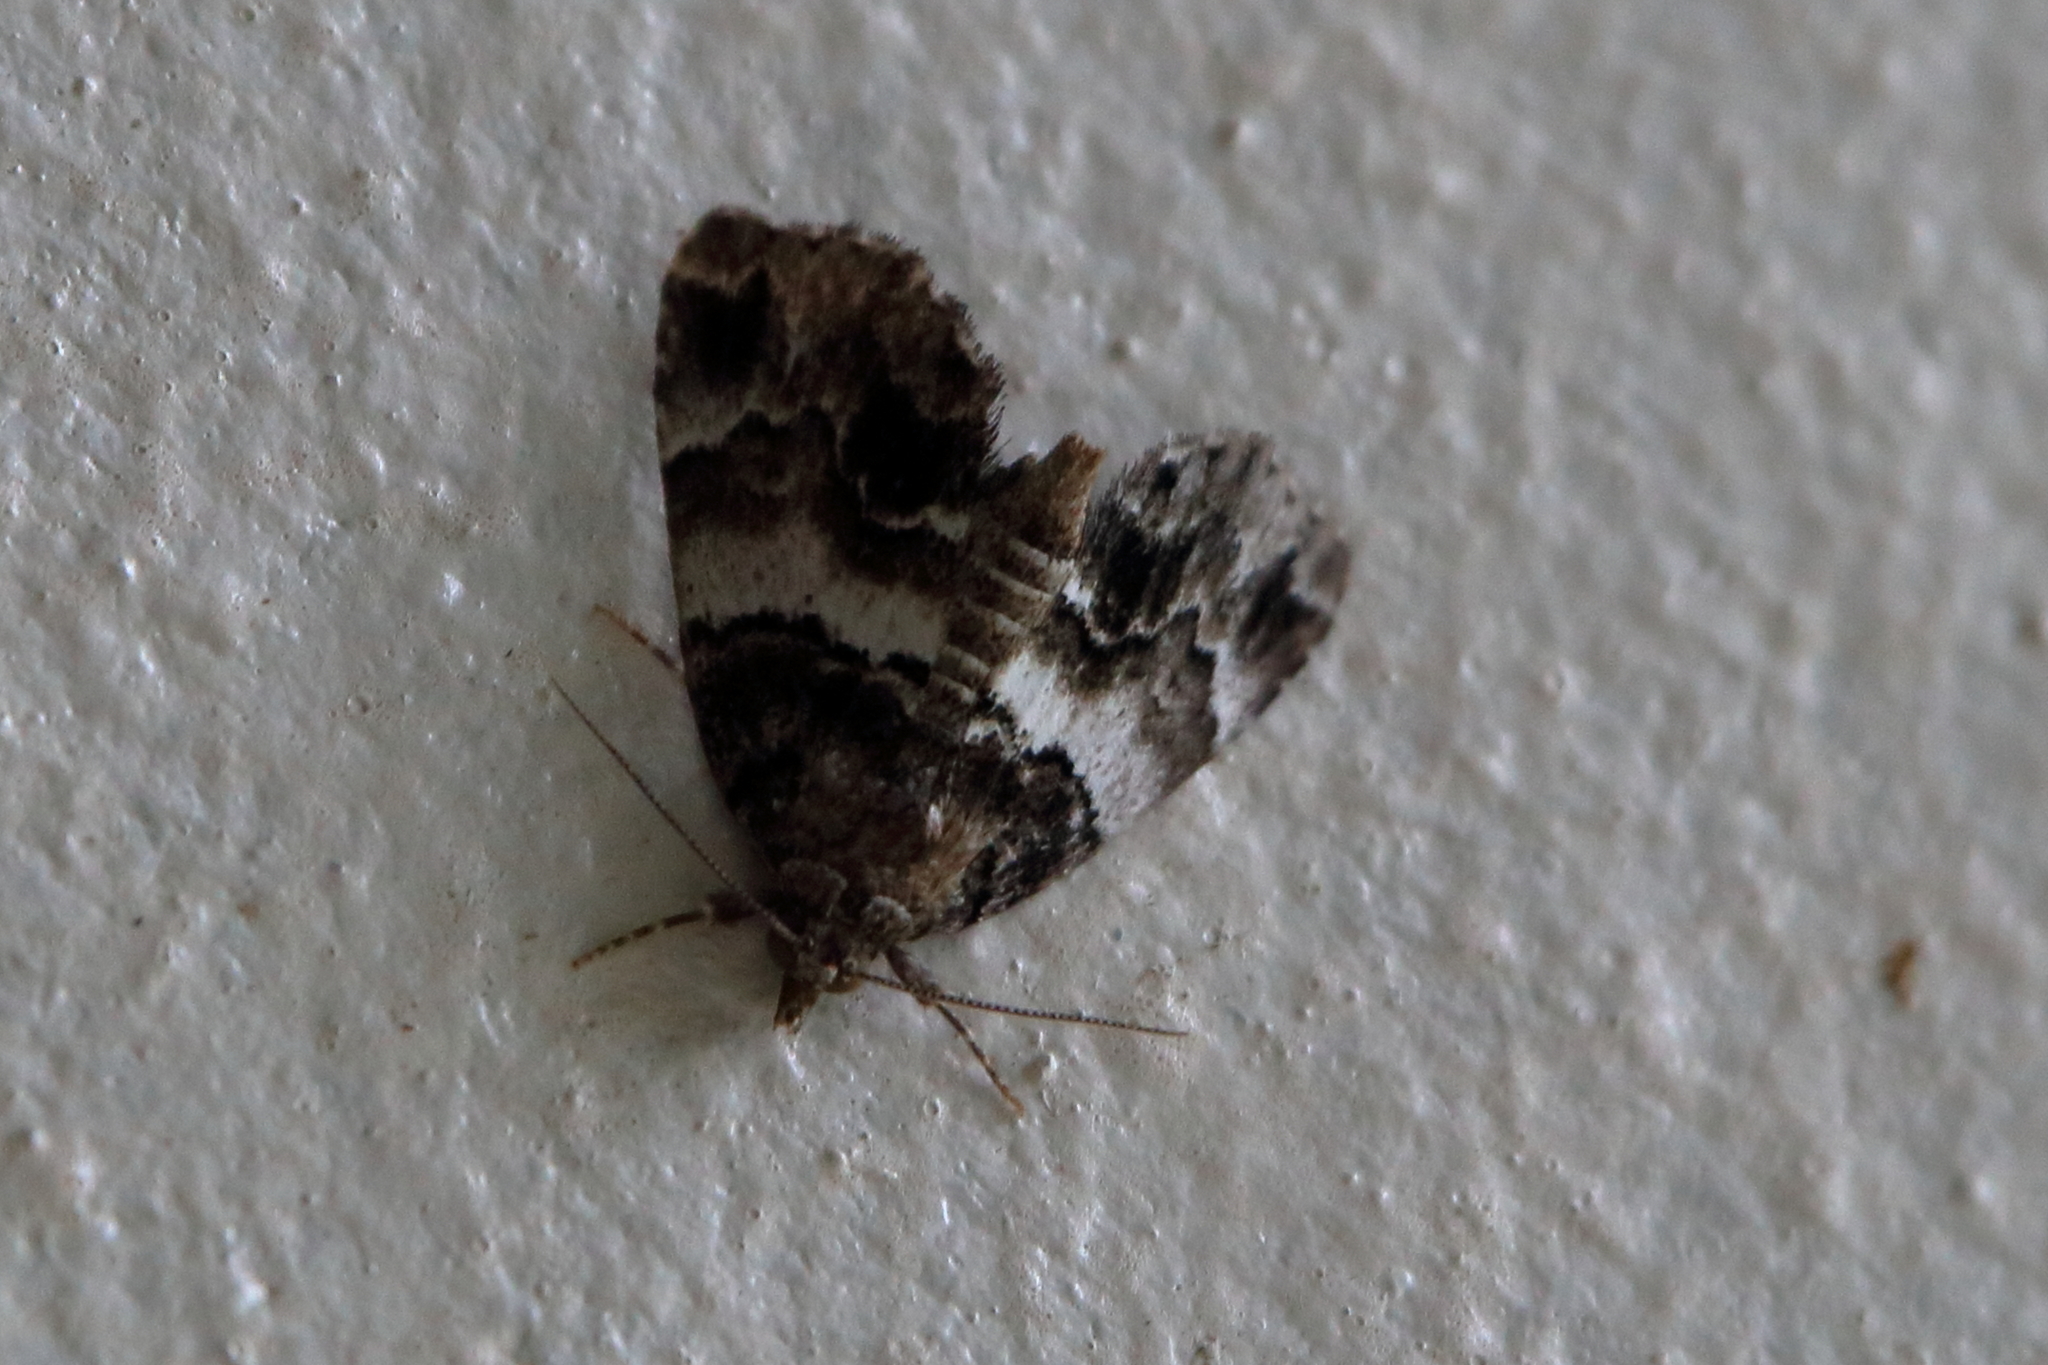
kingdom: Animalia
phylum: Arthropoda
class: Insecta
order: Lepidoptera
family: Erebidae
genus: Cutina
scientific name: Cutina distincta
